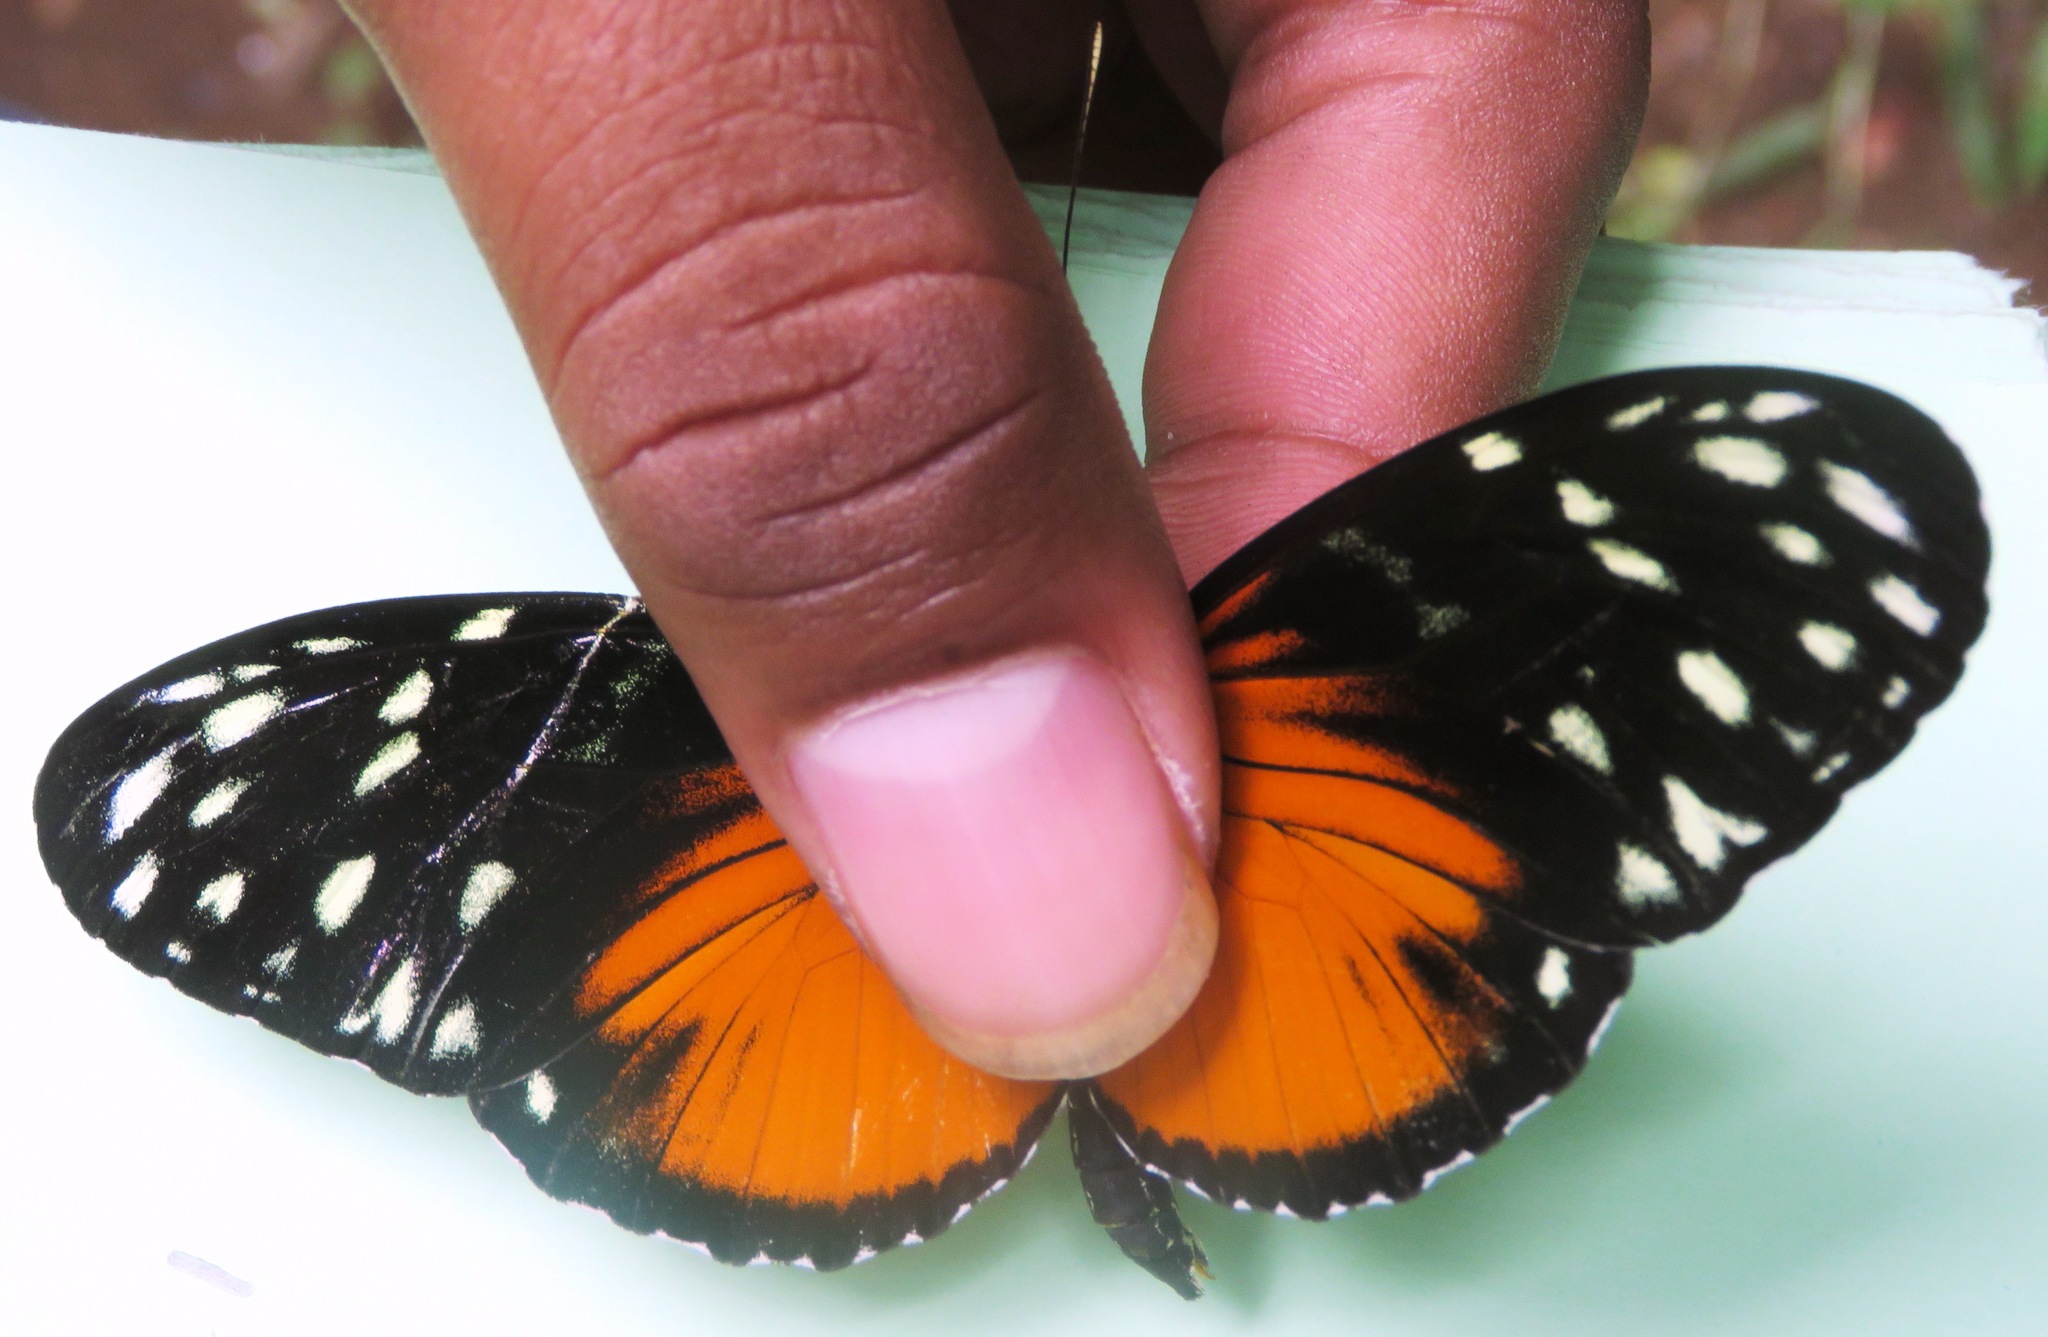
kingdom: Animalia
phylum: Arthropoda
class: Insecta
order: Lepidoptera
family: Nymphalidae
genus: Heliconius
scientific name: Heliconius hecale
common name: Tiger longwing
